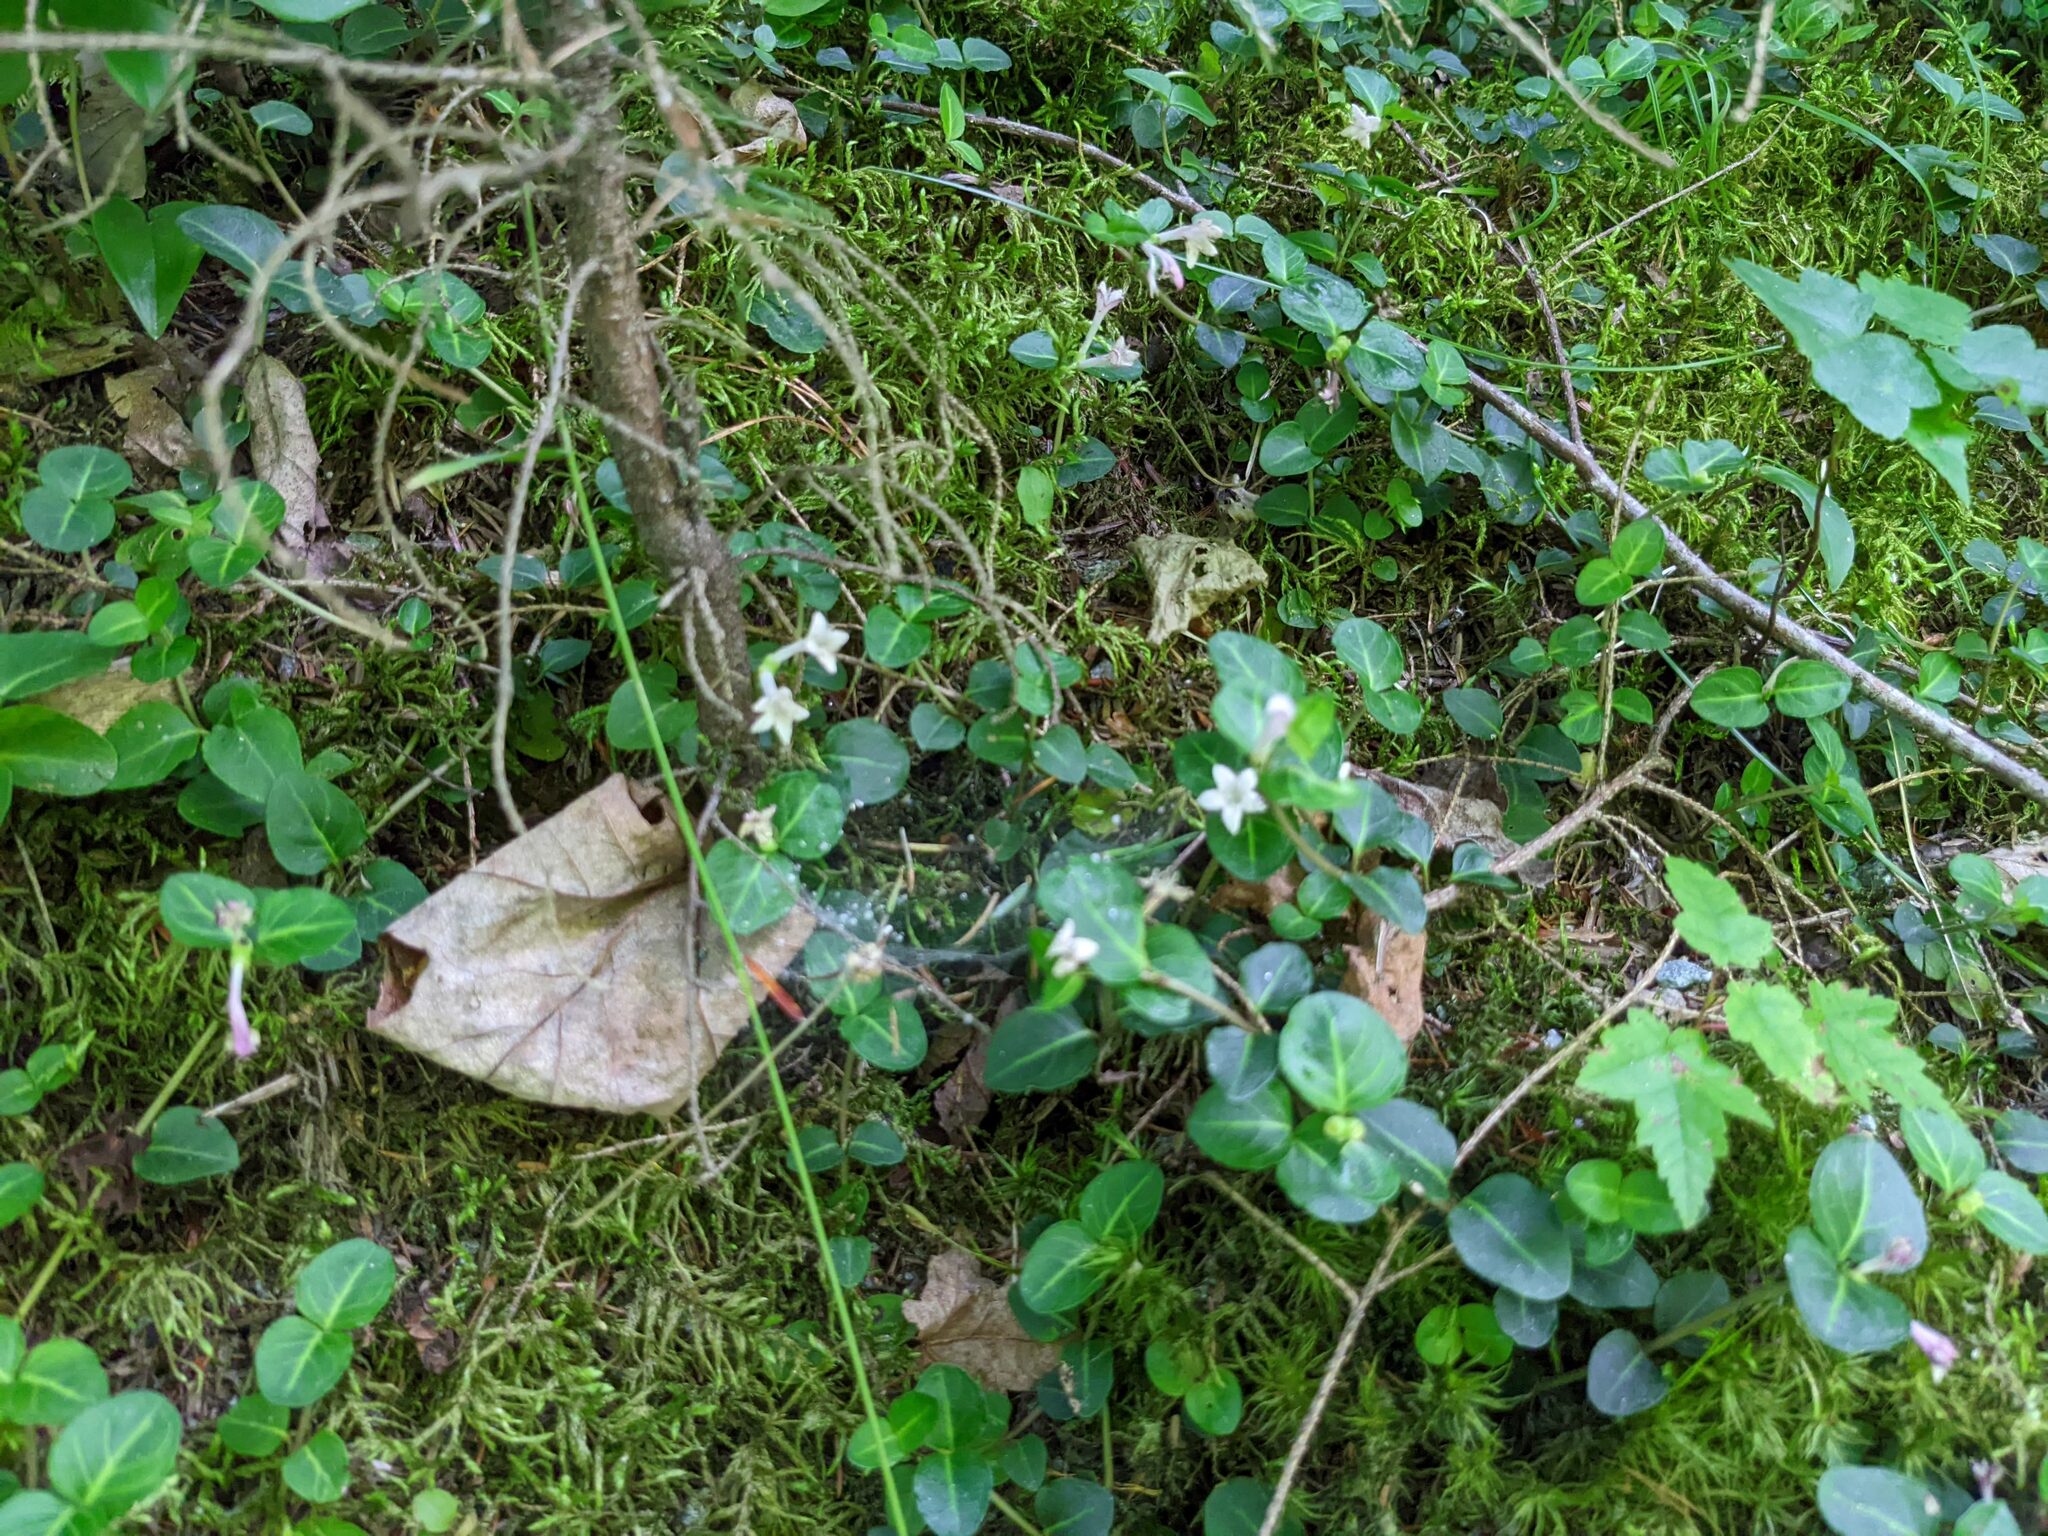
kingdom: Plantae
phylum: Tracheophyta
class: Magnoliopsida
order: Gentianales
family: Rubiaceae
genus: Mitchella
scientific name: Mitchella repens
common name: Partridge-berry
